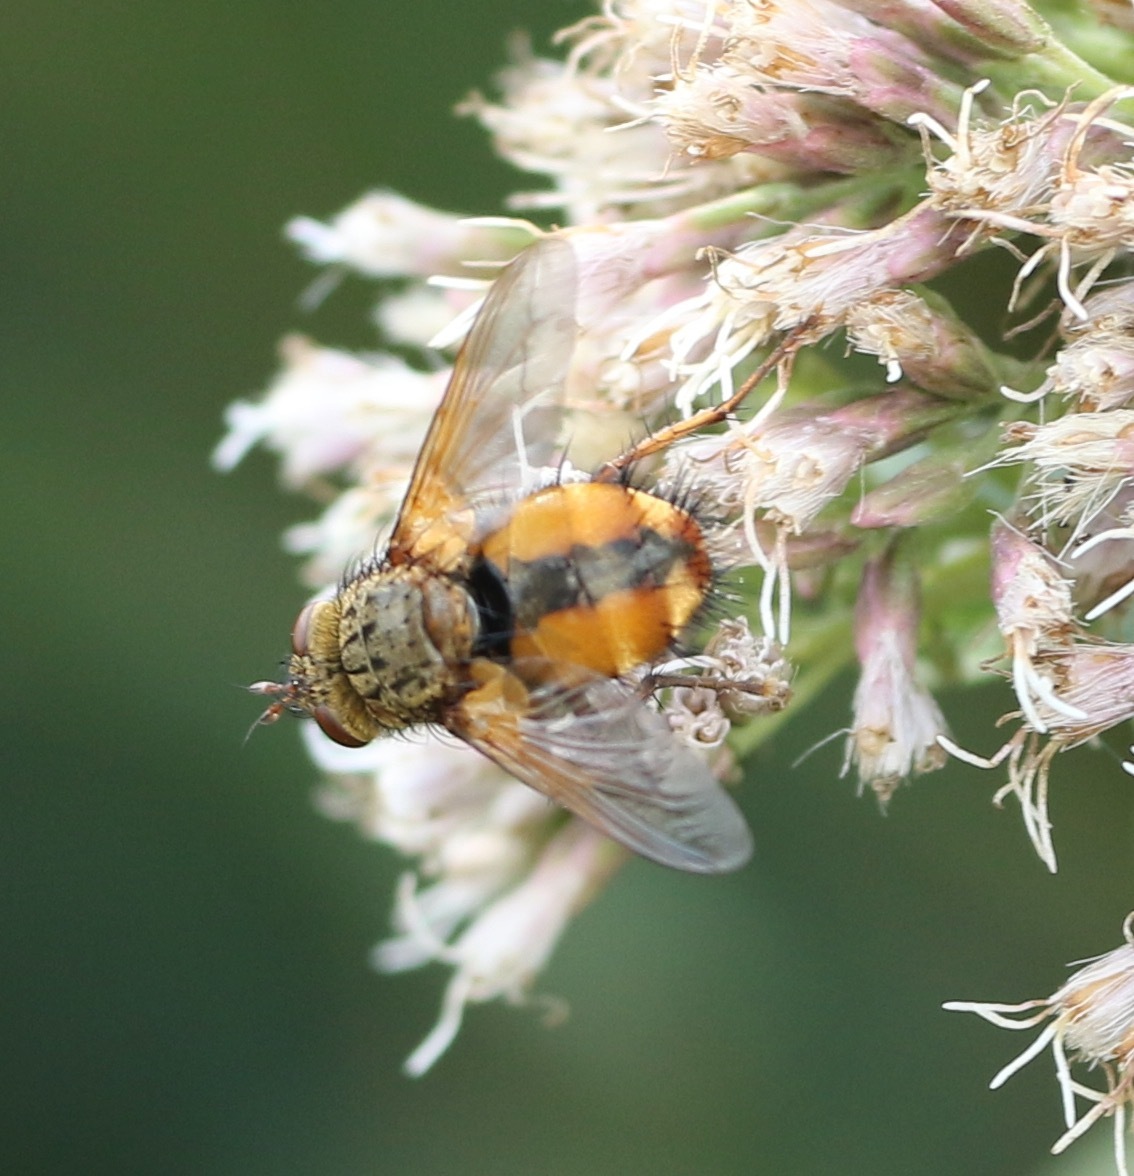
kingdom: Animalia
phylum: Arthropoda
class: Insecta
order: Diptera
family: Tachinidae
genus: Tachina
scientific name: Tachina fera
